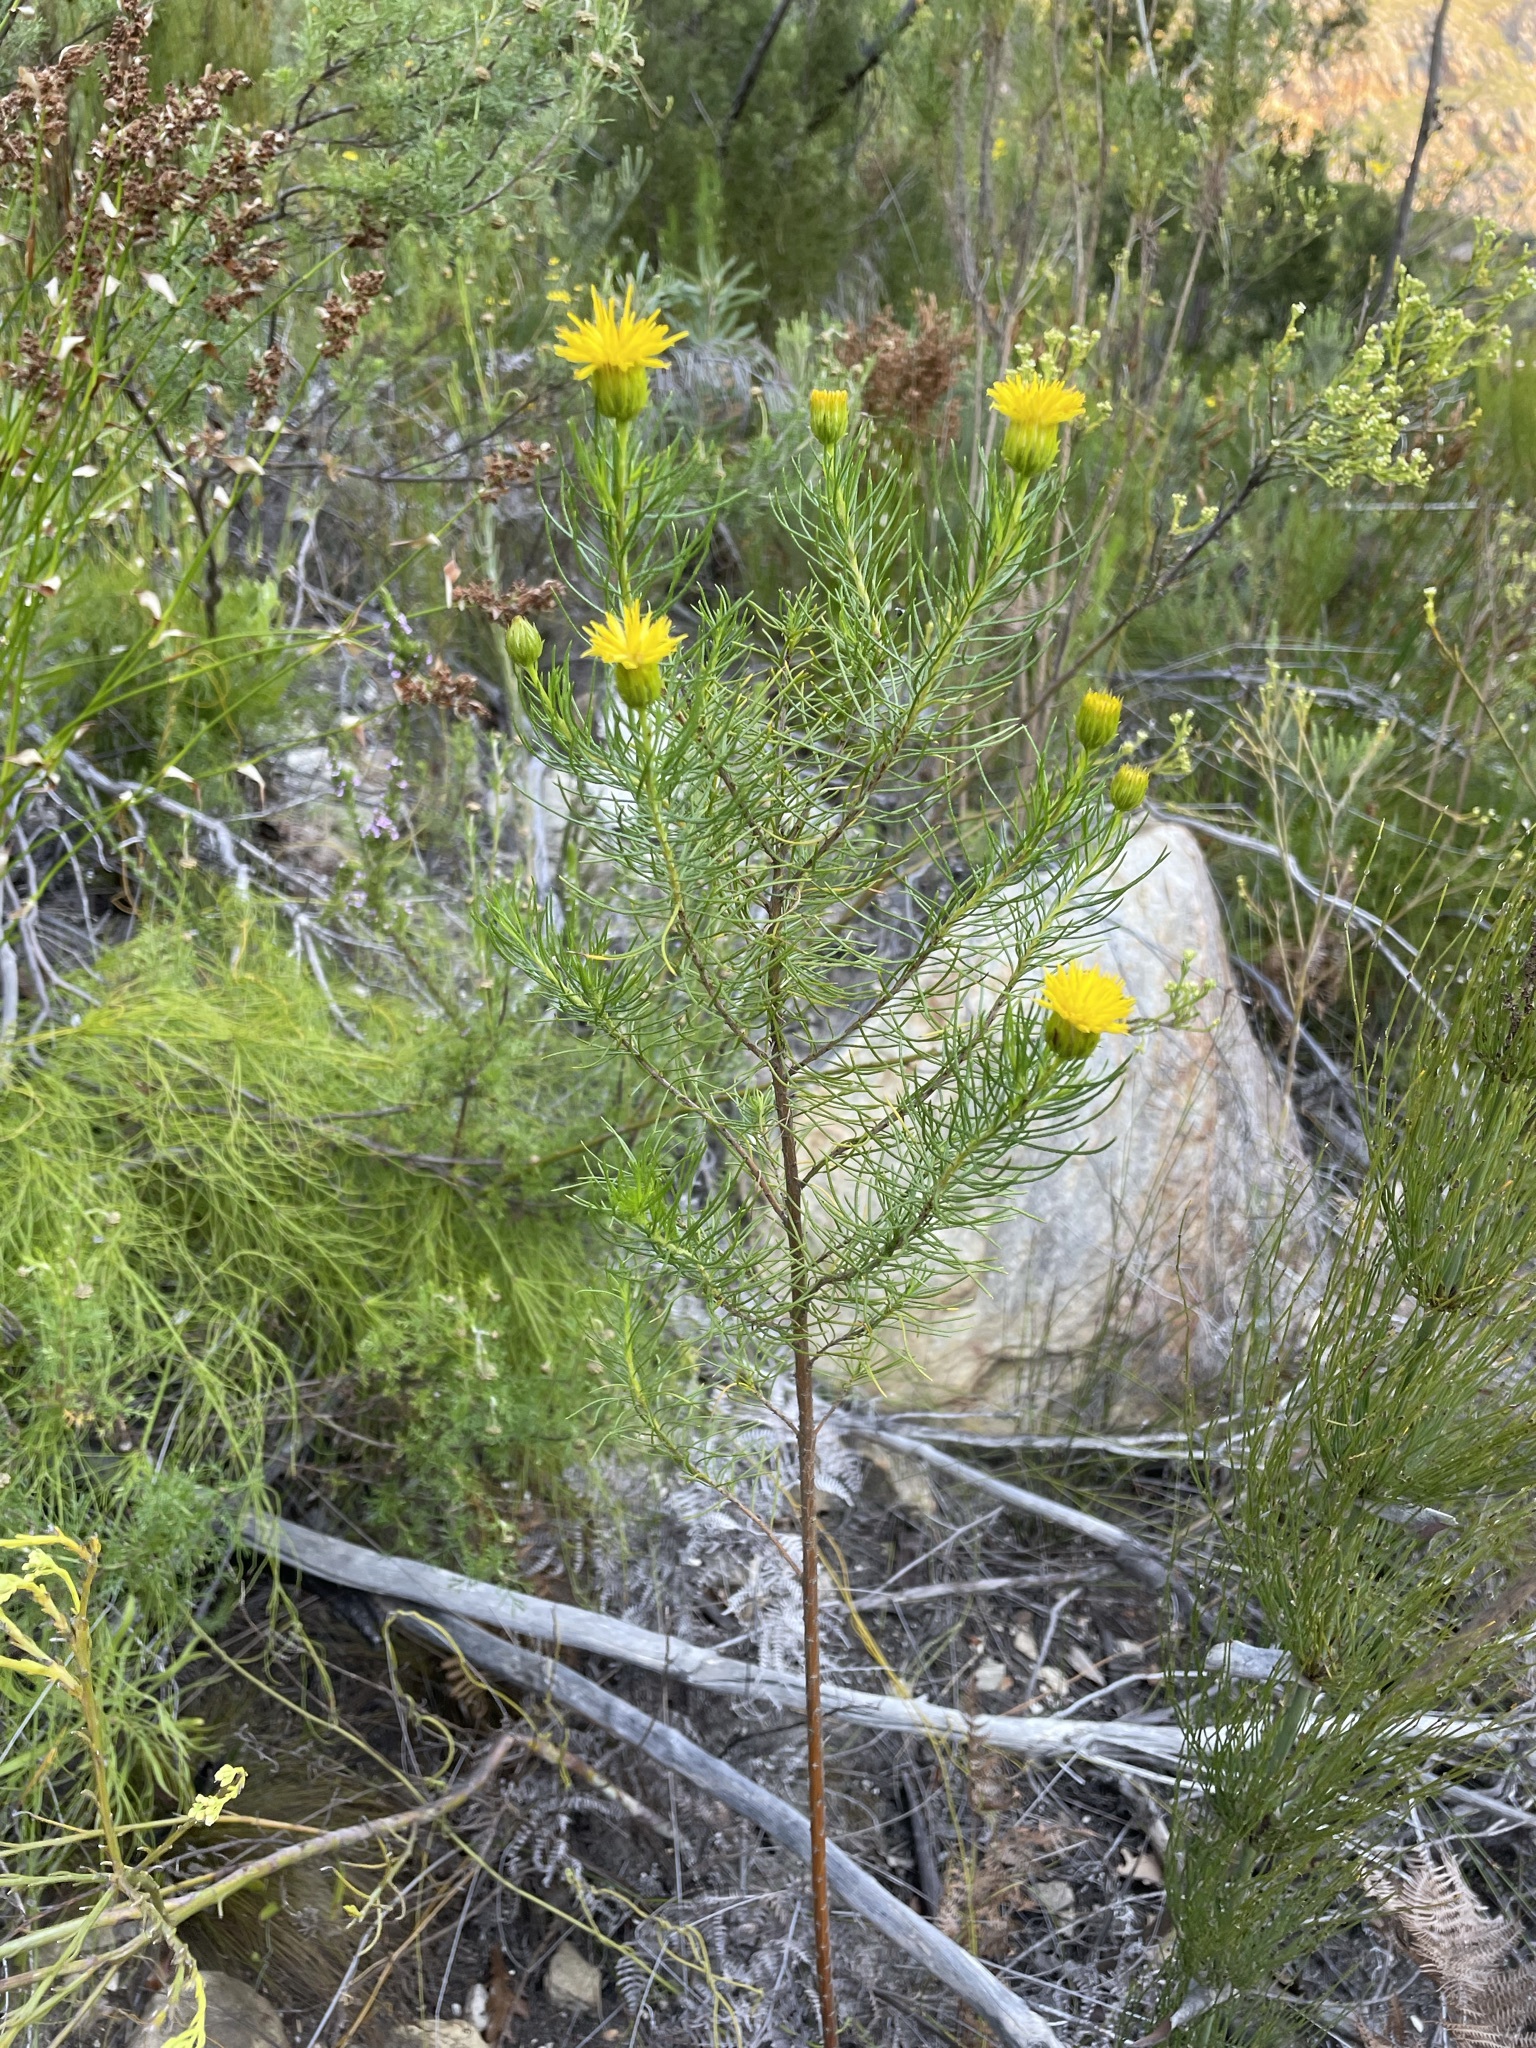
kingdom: Plantae
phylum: Tracheophyta
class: Magnoliopsida
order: Asterales
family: Asteraceae
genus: Pteronia
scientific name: Pteronia camphorata
